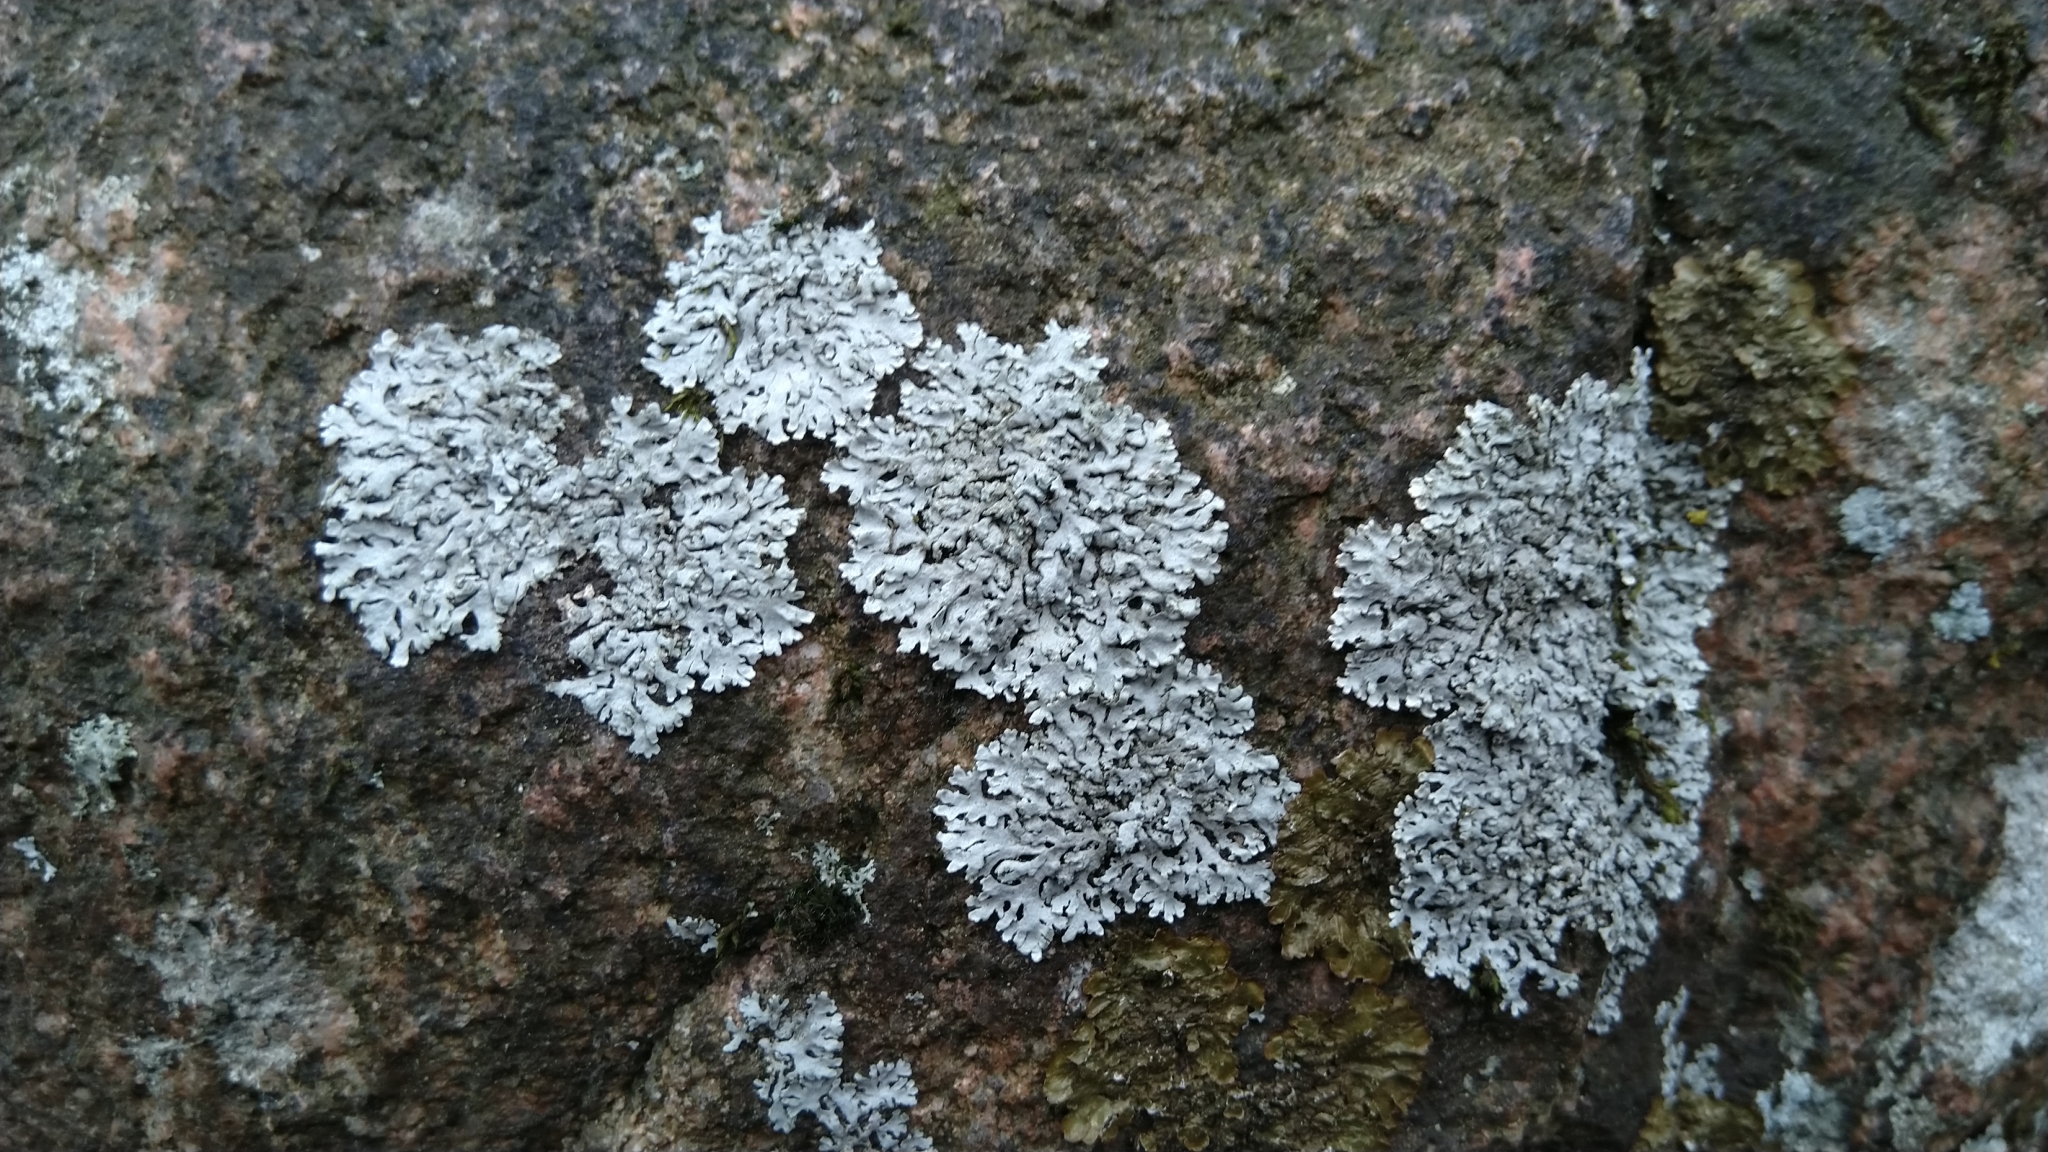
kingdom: Fungi
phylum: Ascomycota
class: Lecanoromycetes
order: Caliciales
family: Physciaceae
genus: Physcia
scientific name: Physcia caesia
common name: Blue-gray rosette lichen
